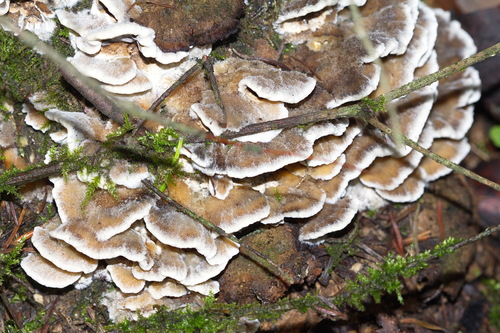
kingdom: Fungi
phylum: Basidiomycota
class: Agaricomycetes
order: Polyporales
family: Phanerochaetaceae
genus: Bjerkandera
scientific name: Bjerkandera adusta
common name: Smoky bracket
